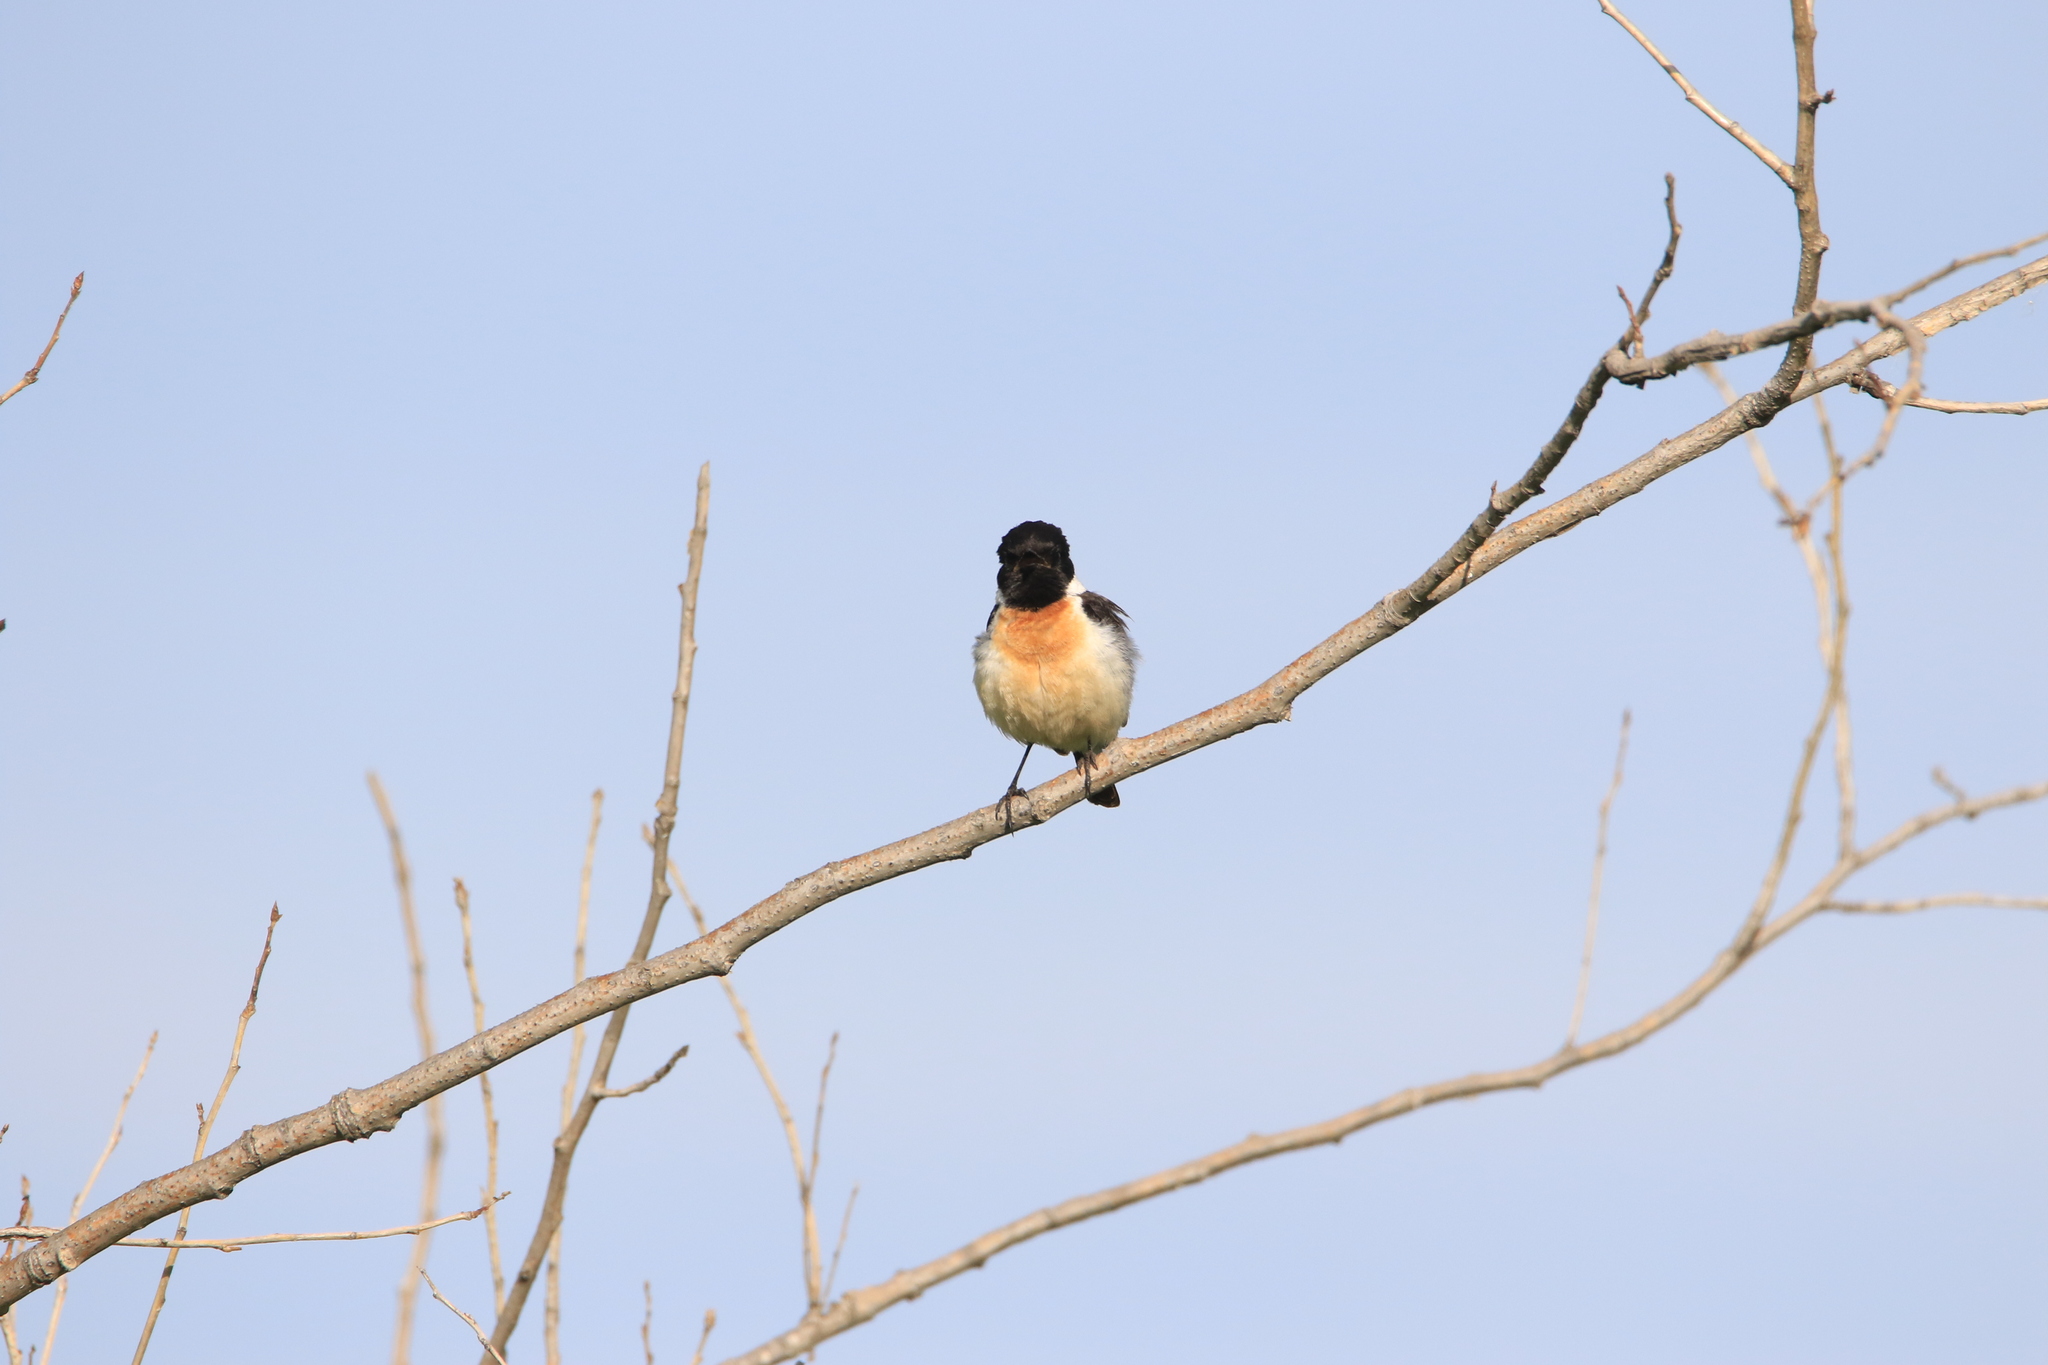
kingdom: Animalia
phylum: Chordata
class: Aves
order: Passeriformes
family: Muscicapidae
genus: Saxicola
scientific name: Saxicola maurus
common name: Siberian stonechat
